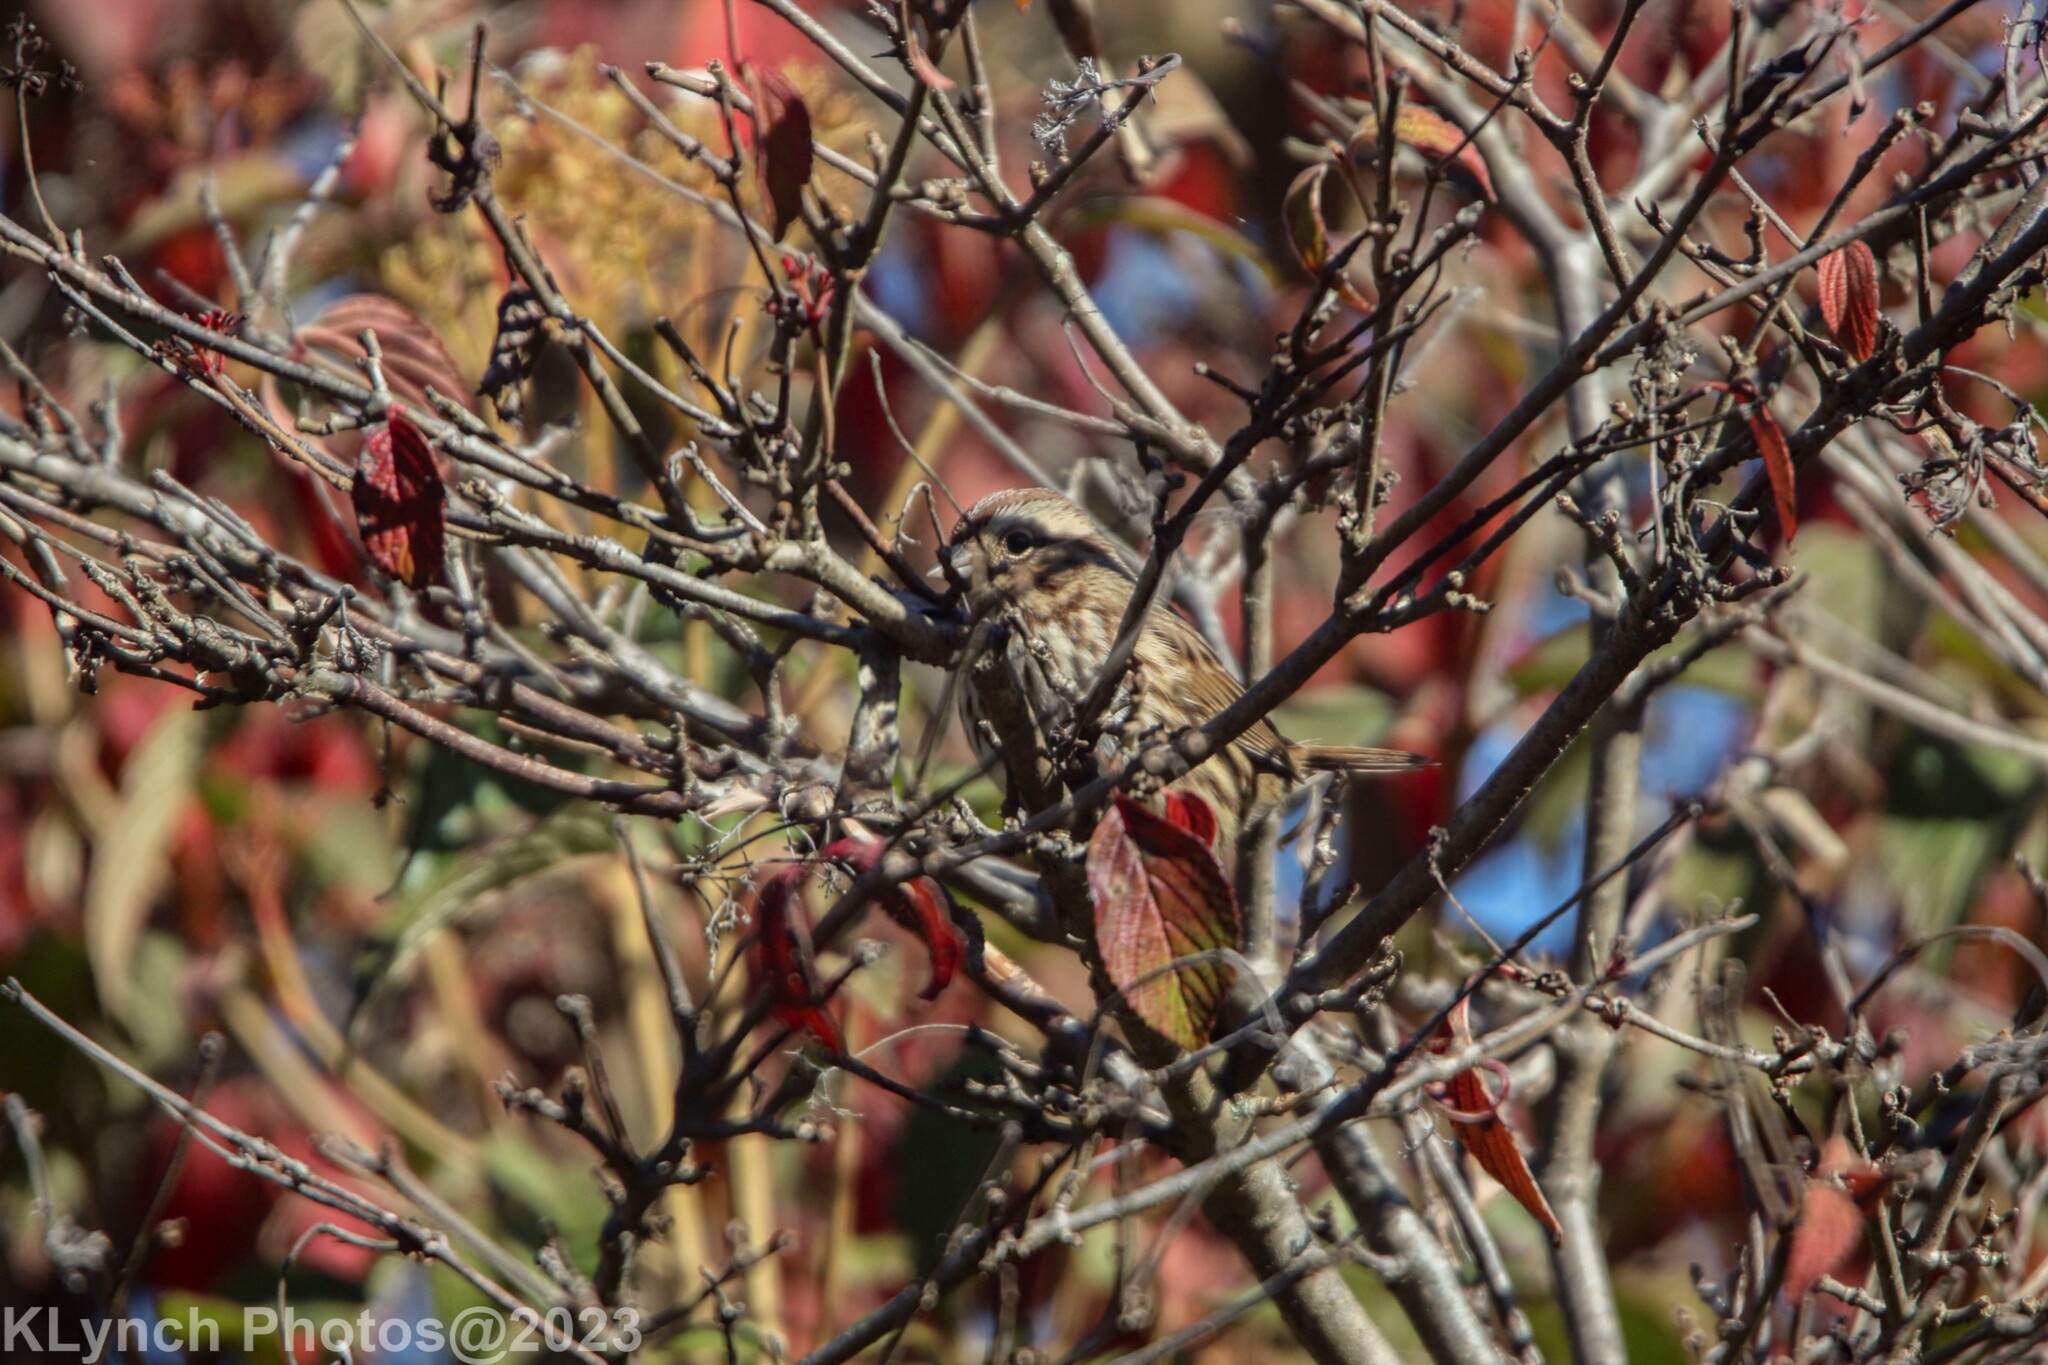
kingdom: Animalia
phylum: Chordata
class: Aves
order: Passeriformes
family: Passerellidae
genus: Melospiza
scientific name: Melospiza melodia
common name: Song sparrow
